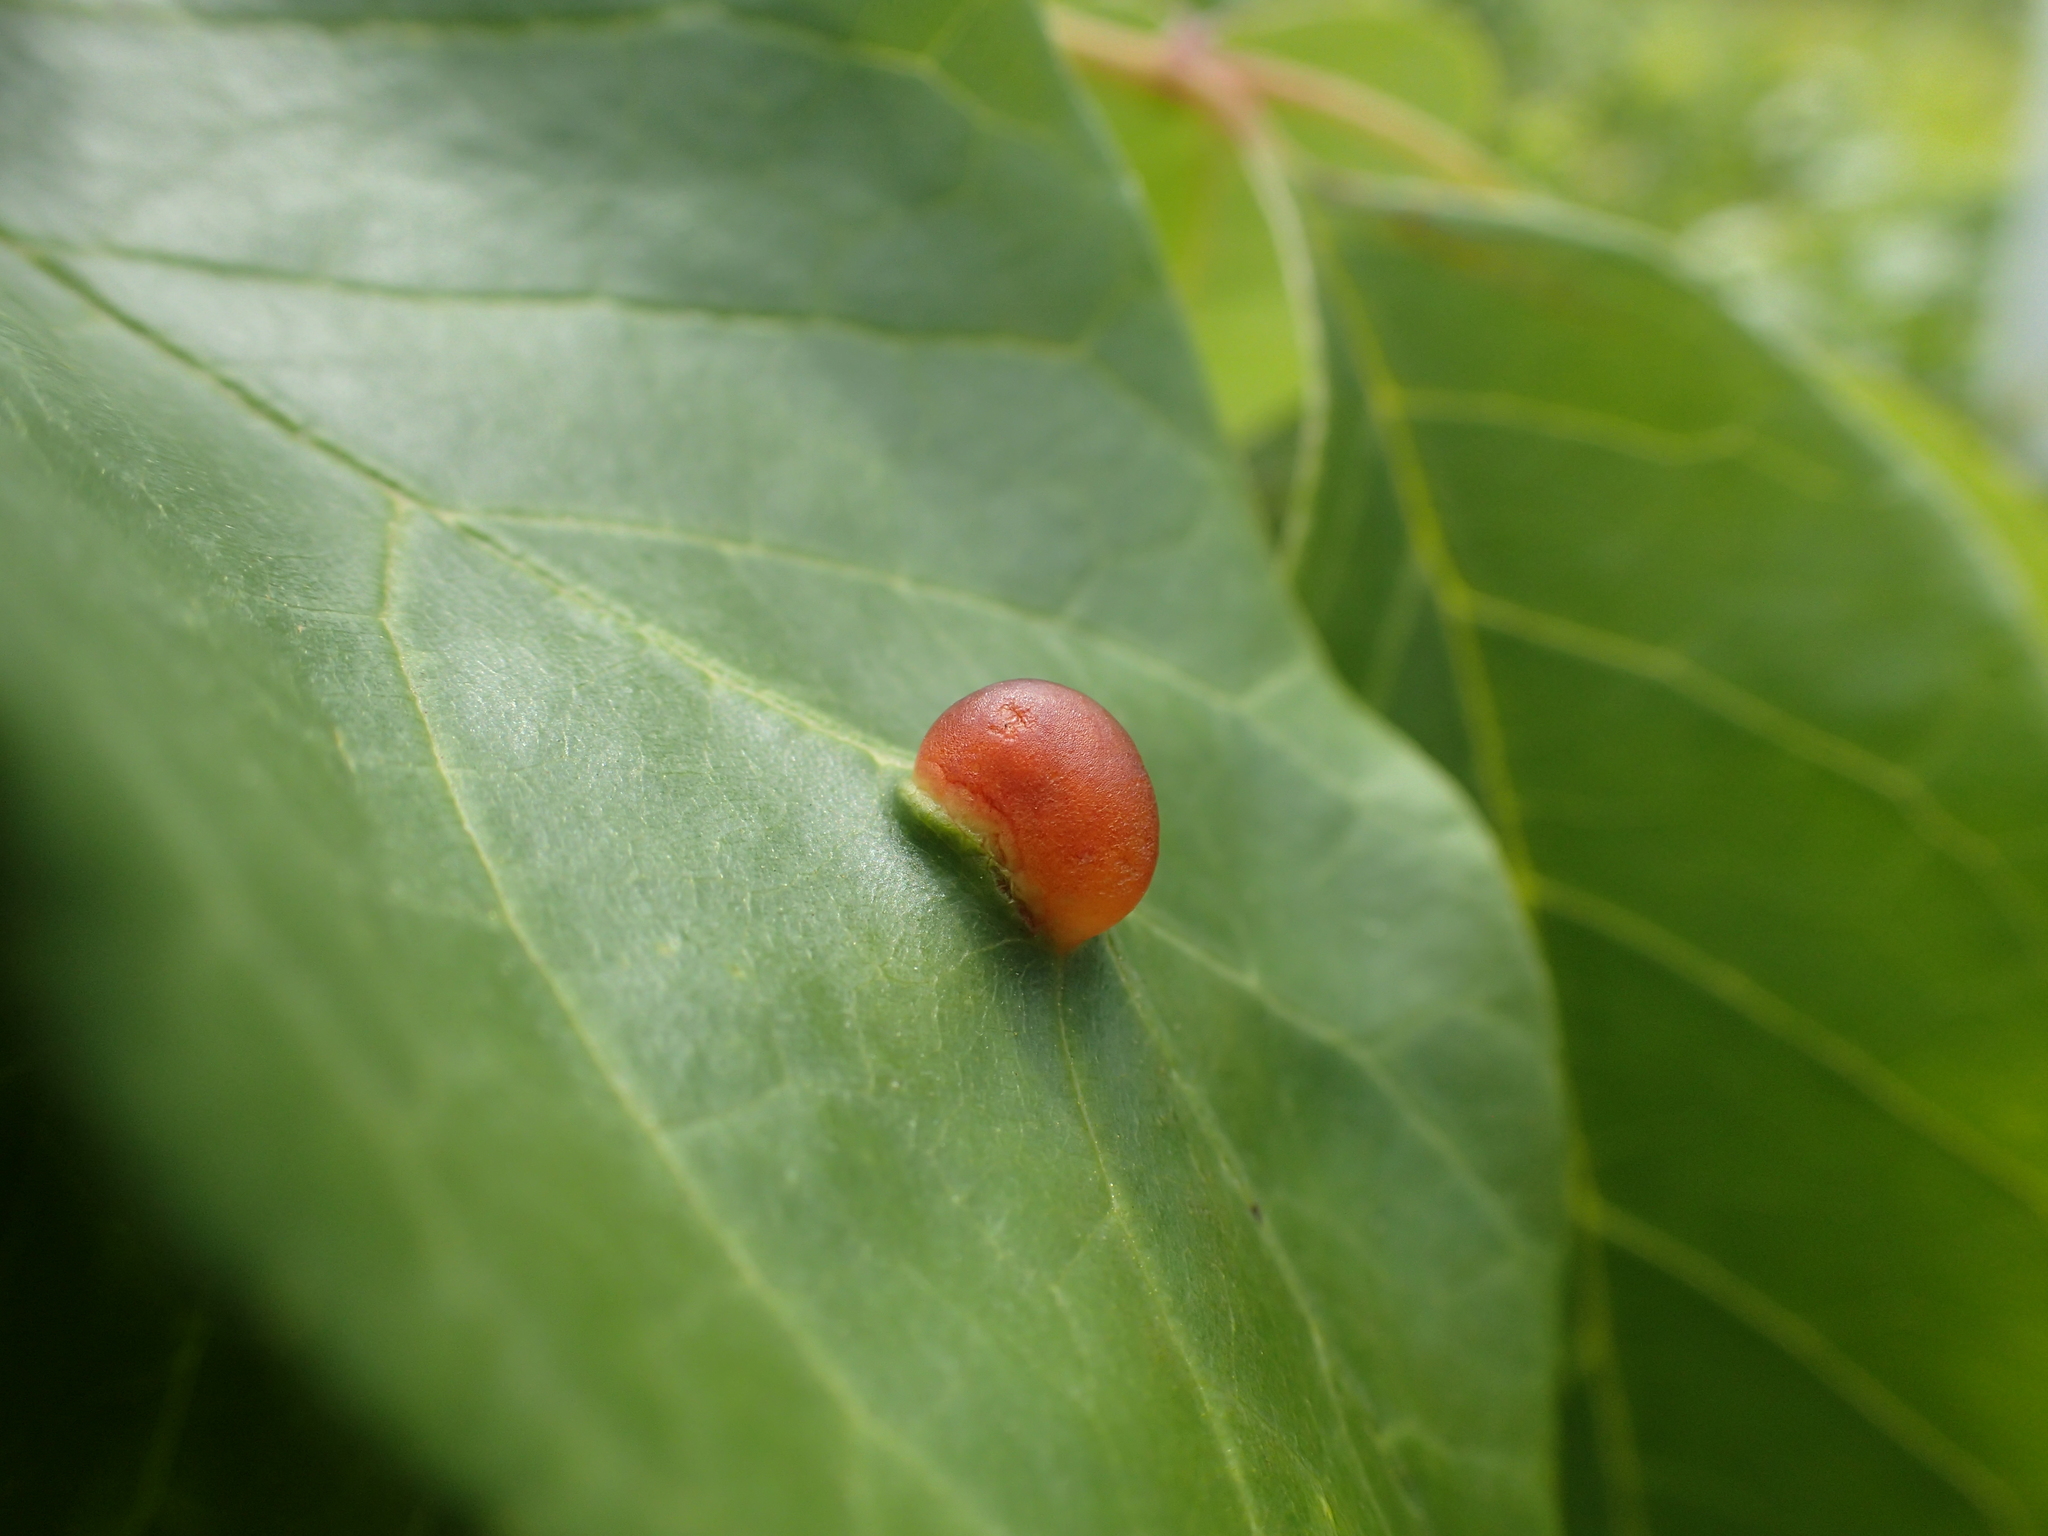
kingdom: Animalia
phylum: Arthropoda
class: Insecta
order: Diptera
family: Cecidomyiidae
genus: Dasineura
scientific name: Dasineura pellex
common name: Ash bullet gall midge
